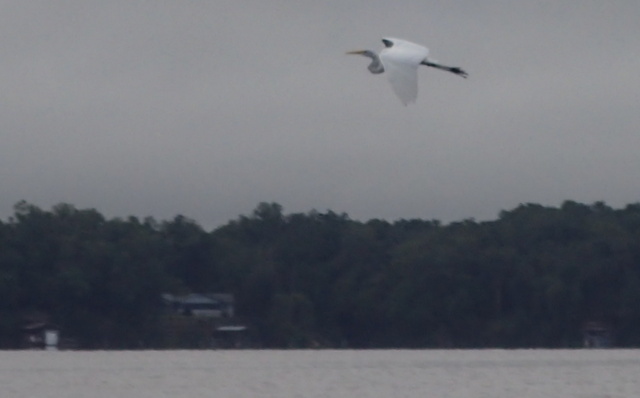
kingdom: Animalia
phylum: Chordata
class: Aves
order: Pelecaniformes
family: Ardeidae
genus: Ardea
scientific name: Ardea alba
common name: Great egret
